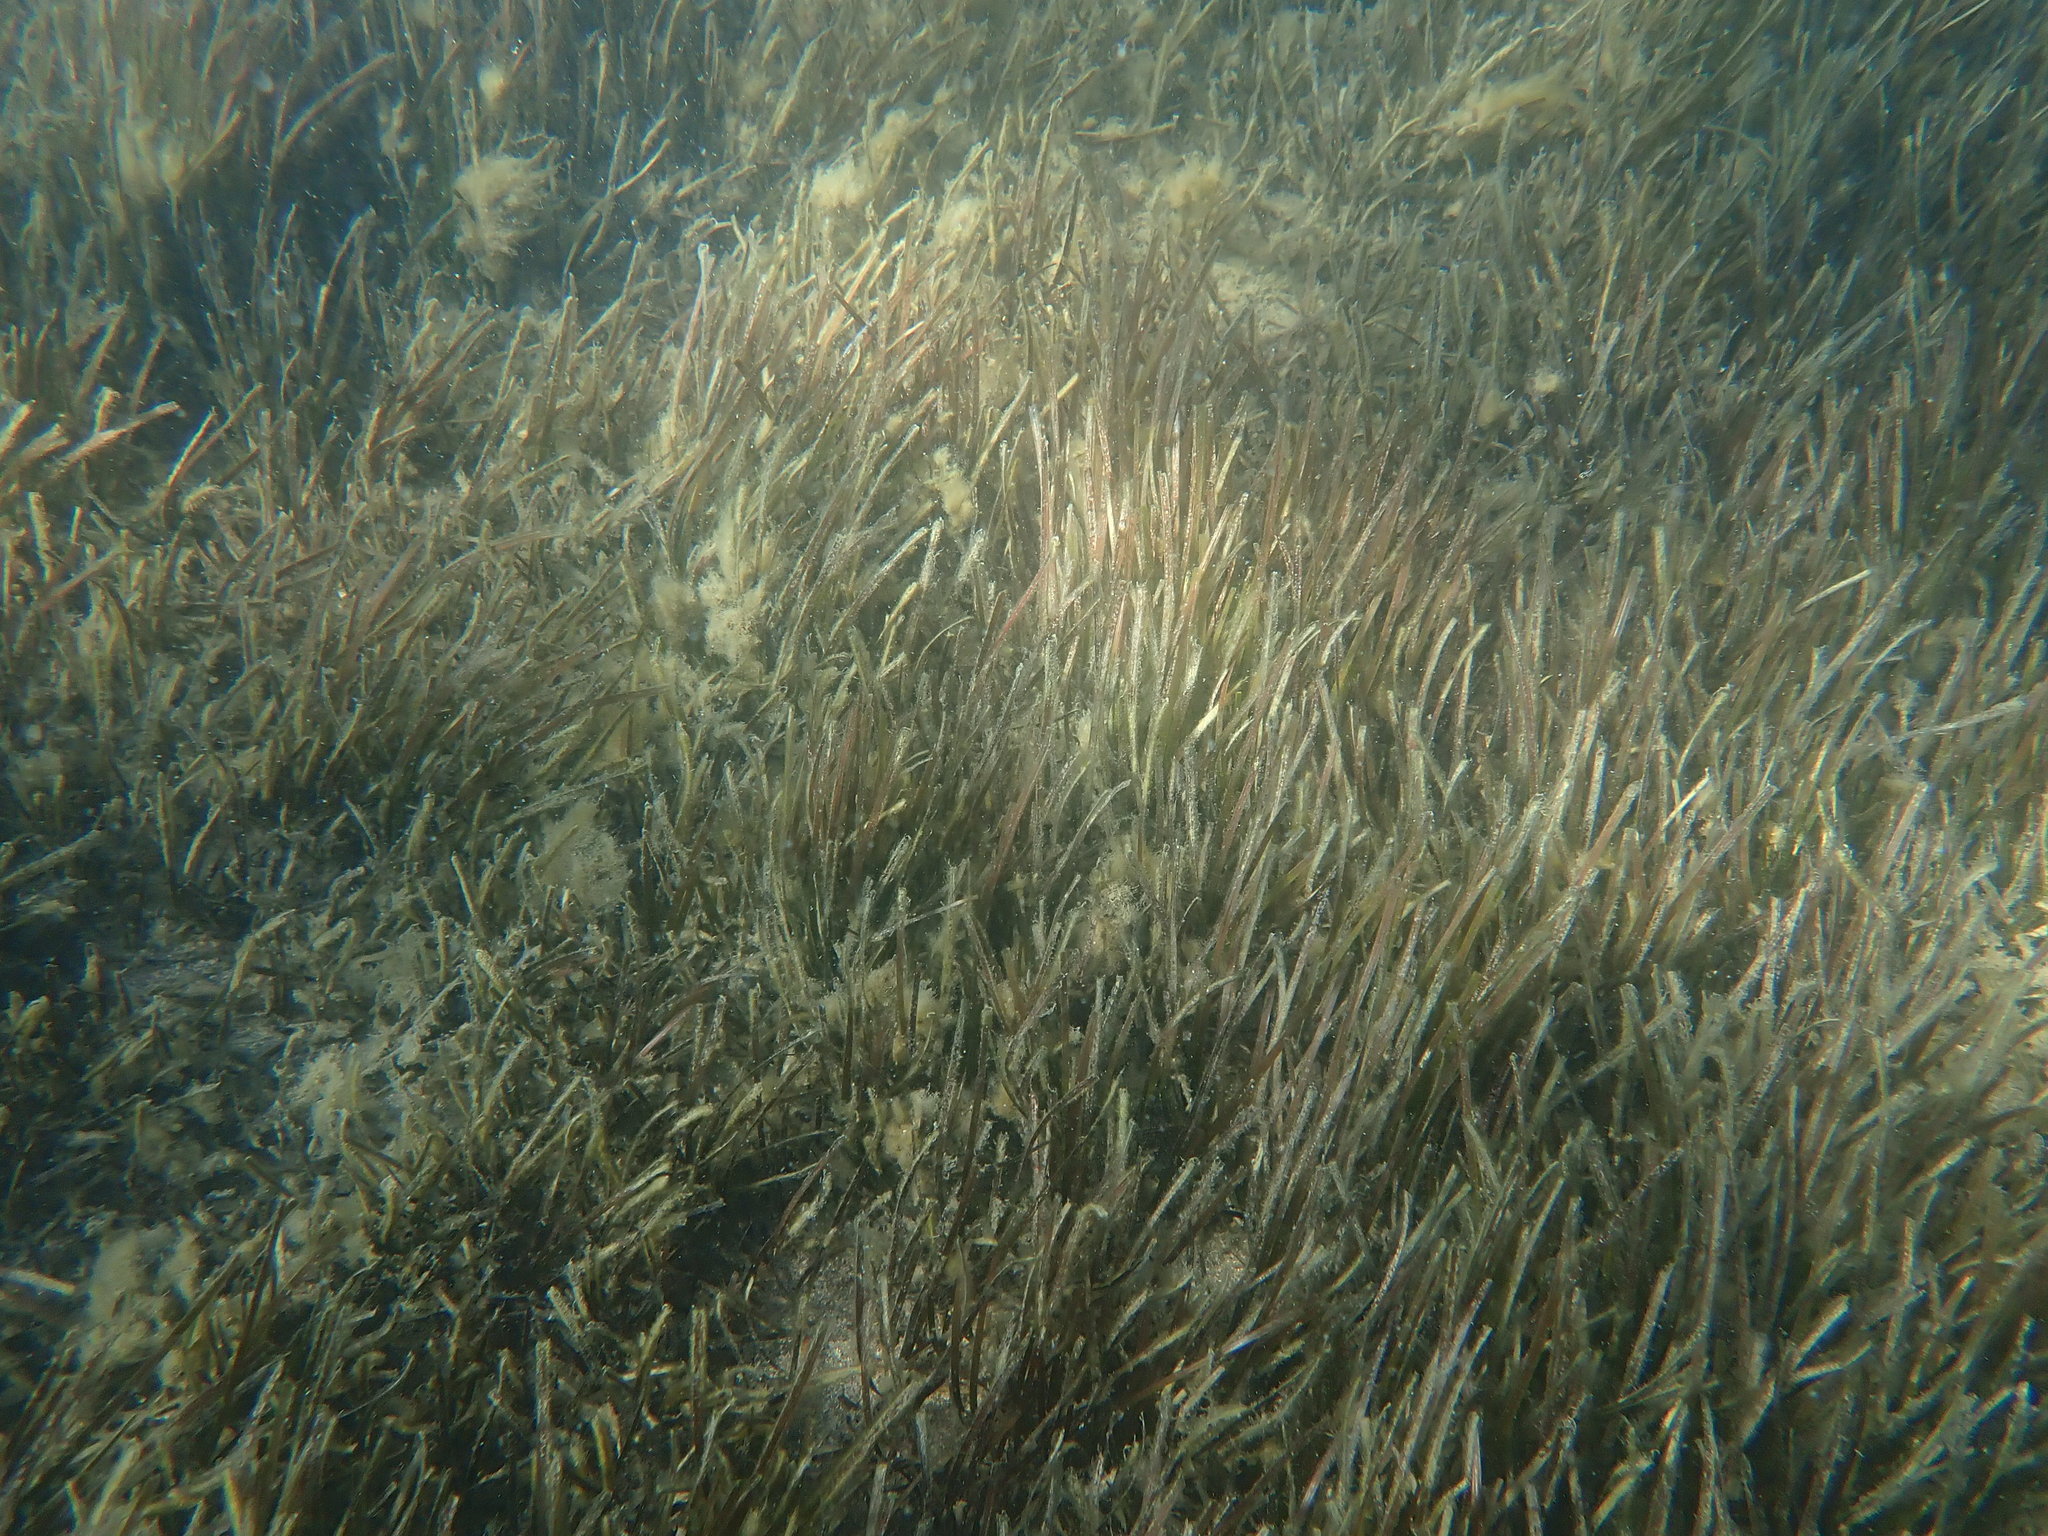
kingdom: Plantae
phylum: Tracheophyta
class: Liliopsida
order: Alismatales
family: Zosteraceae
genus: Zostera
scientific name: Zostera novazelandica
